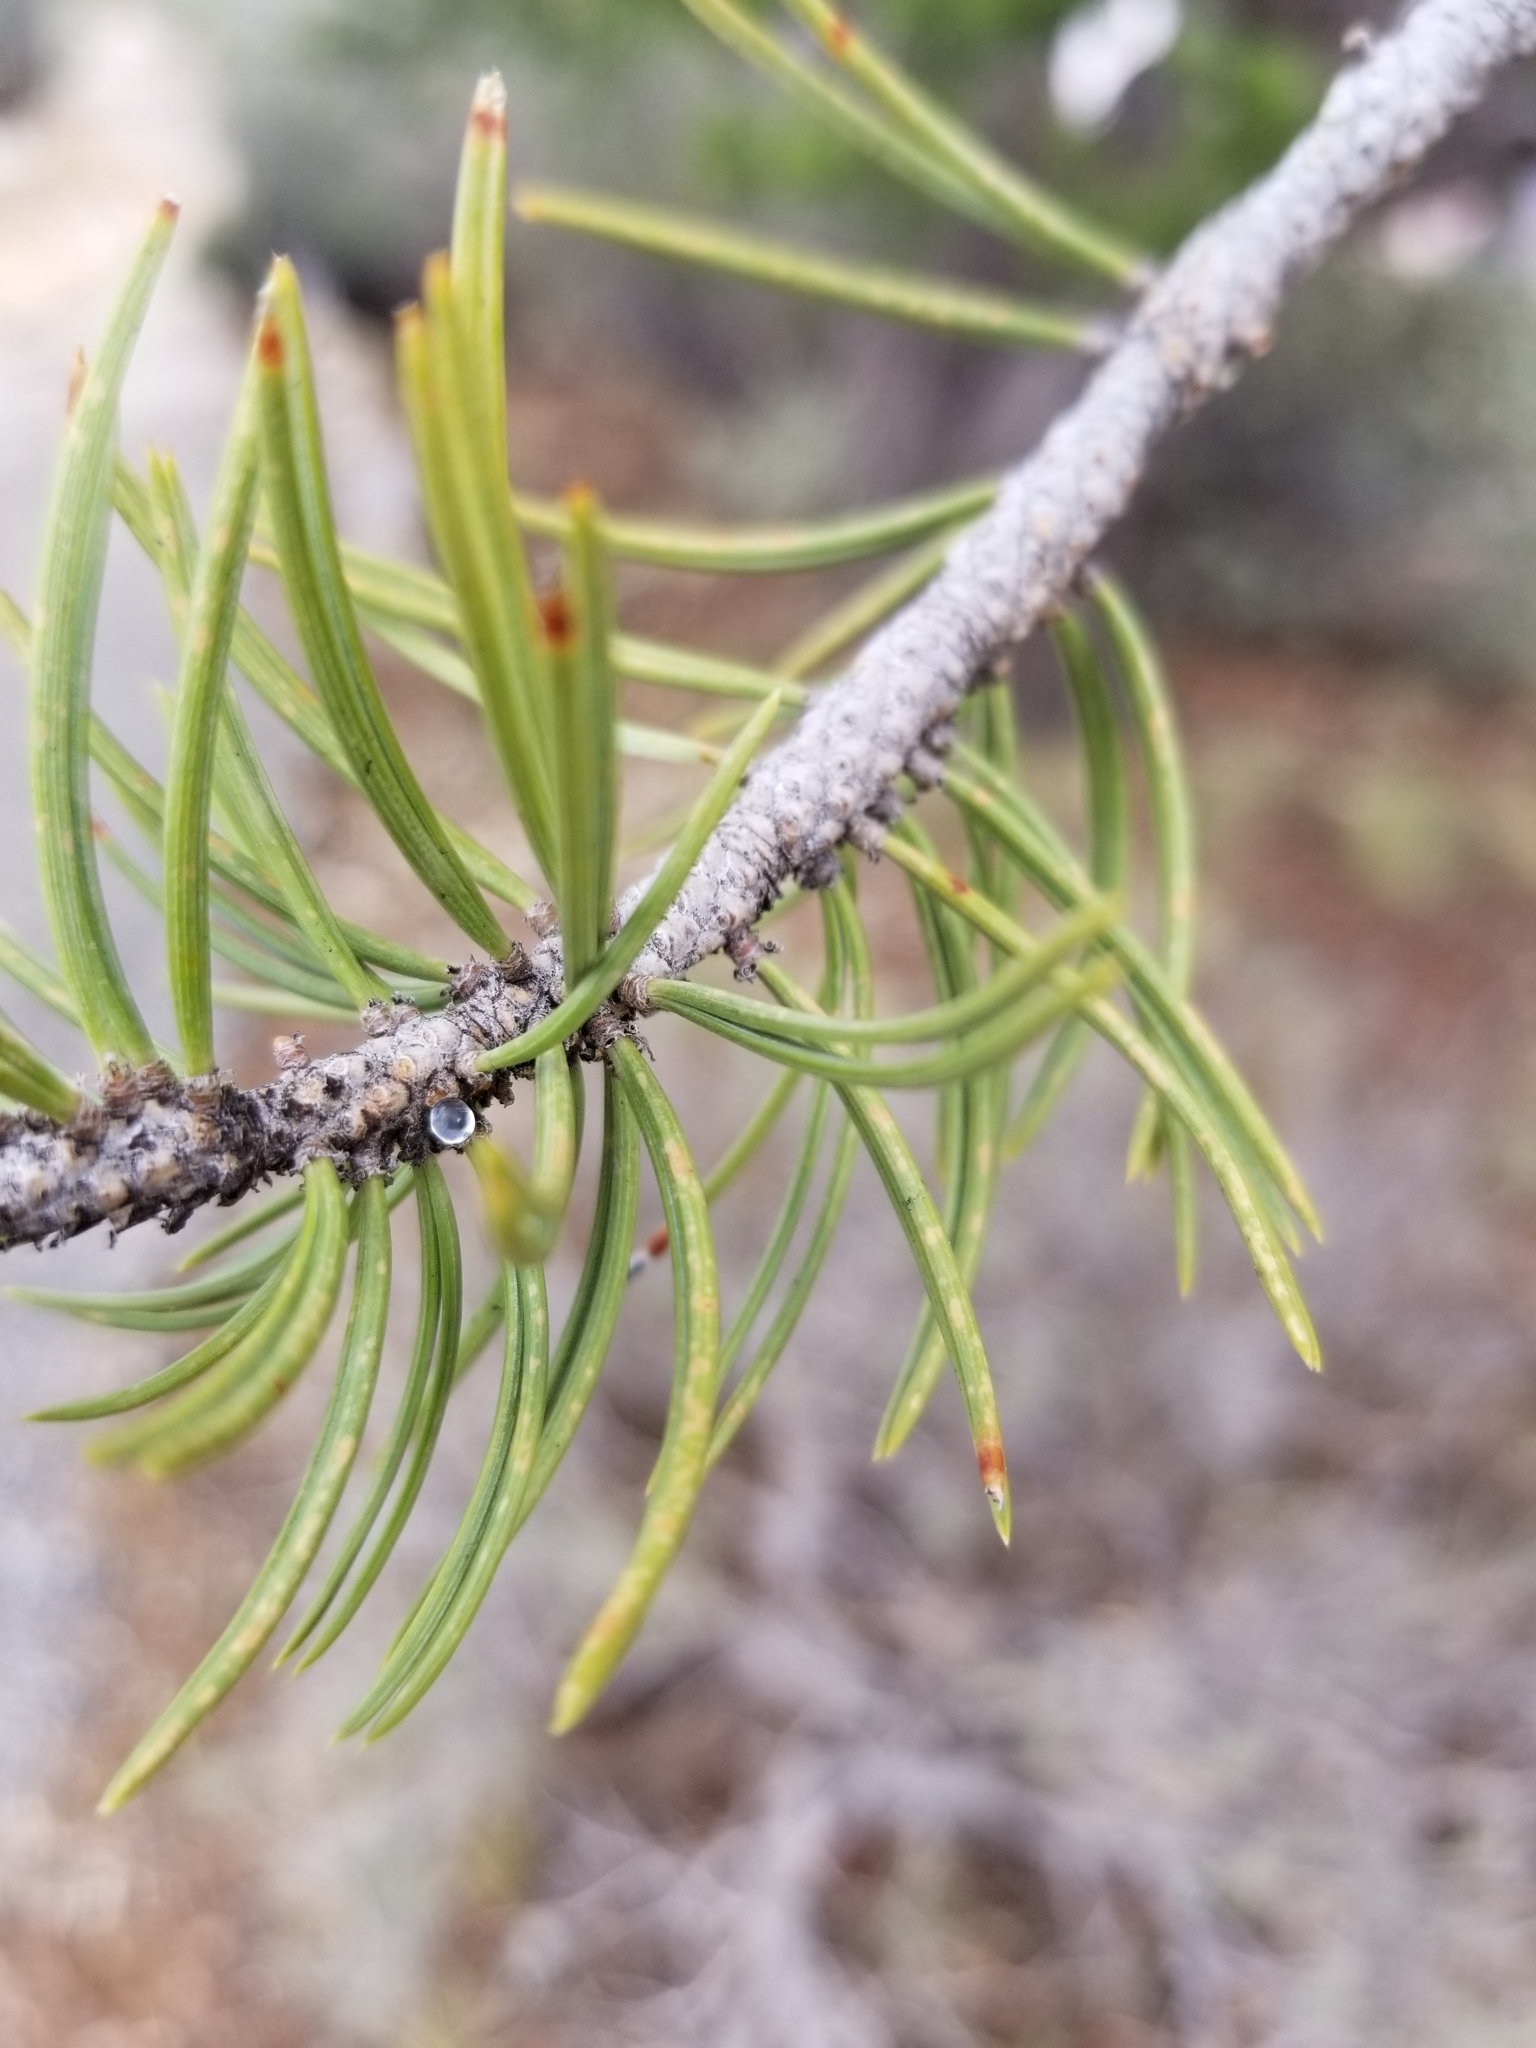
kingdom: Plantae
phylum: Tracheophyta
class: Pinopsida
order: Pinales
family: Pinaceae
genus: Pinus
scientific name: Pinus edulis
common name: Colorado pinyon
